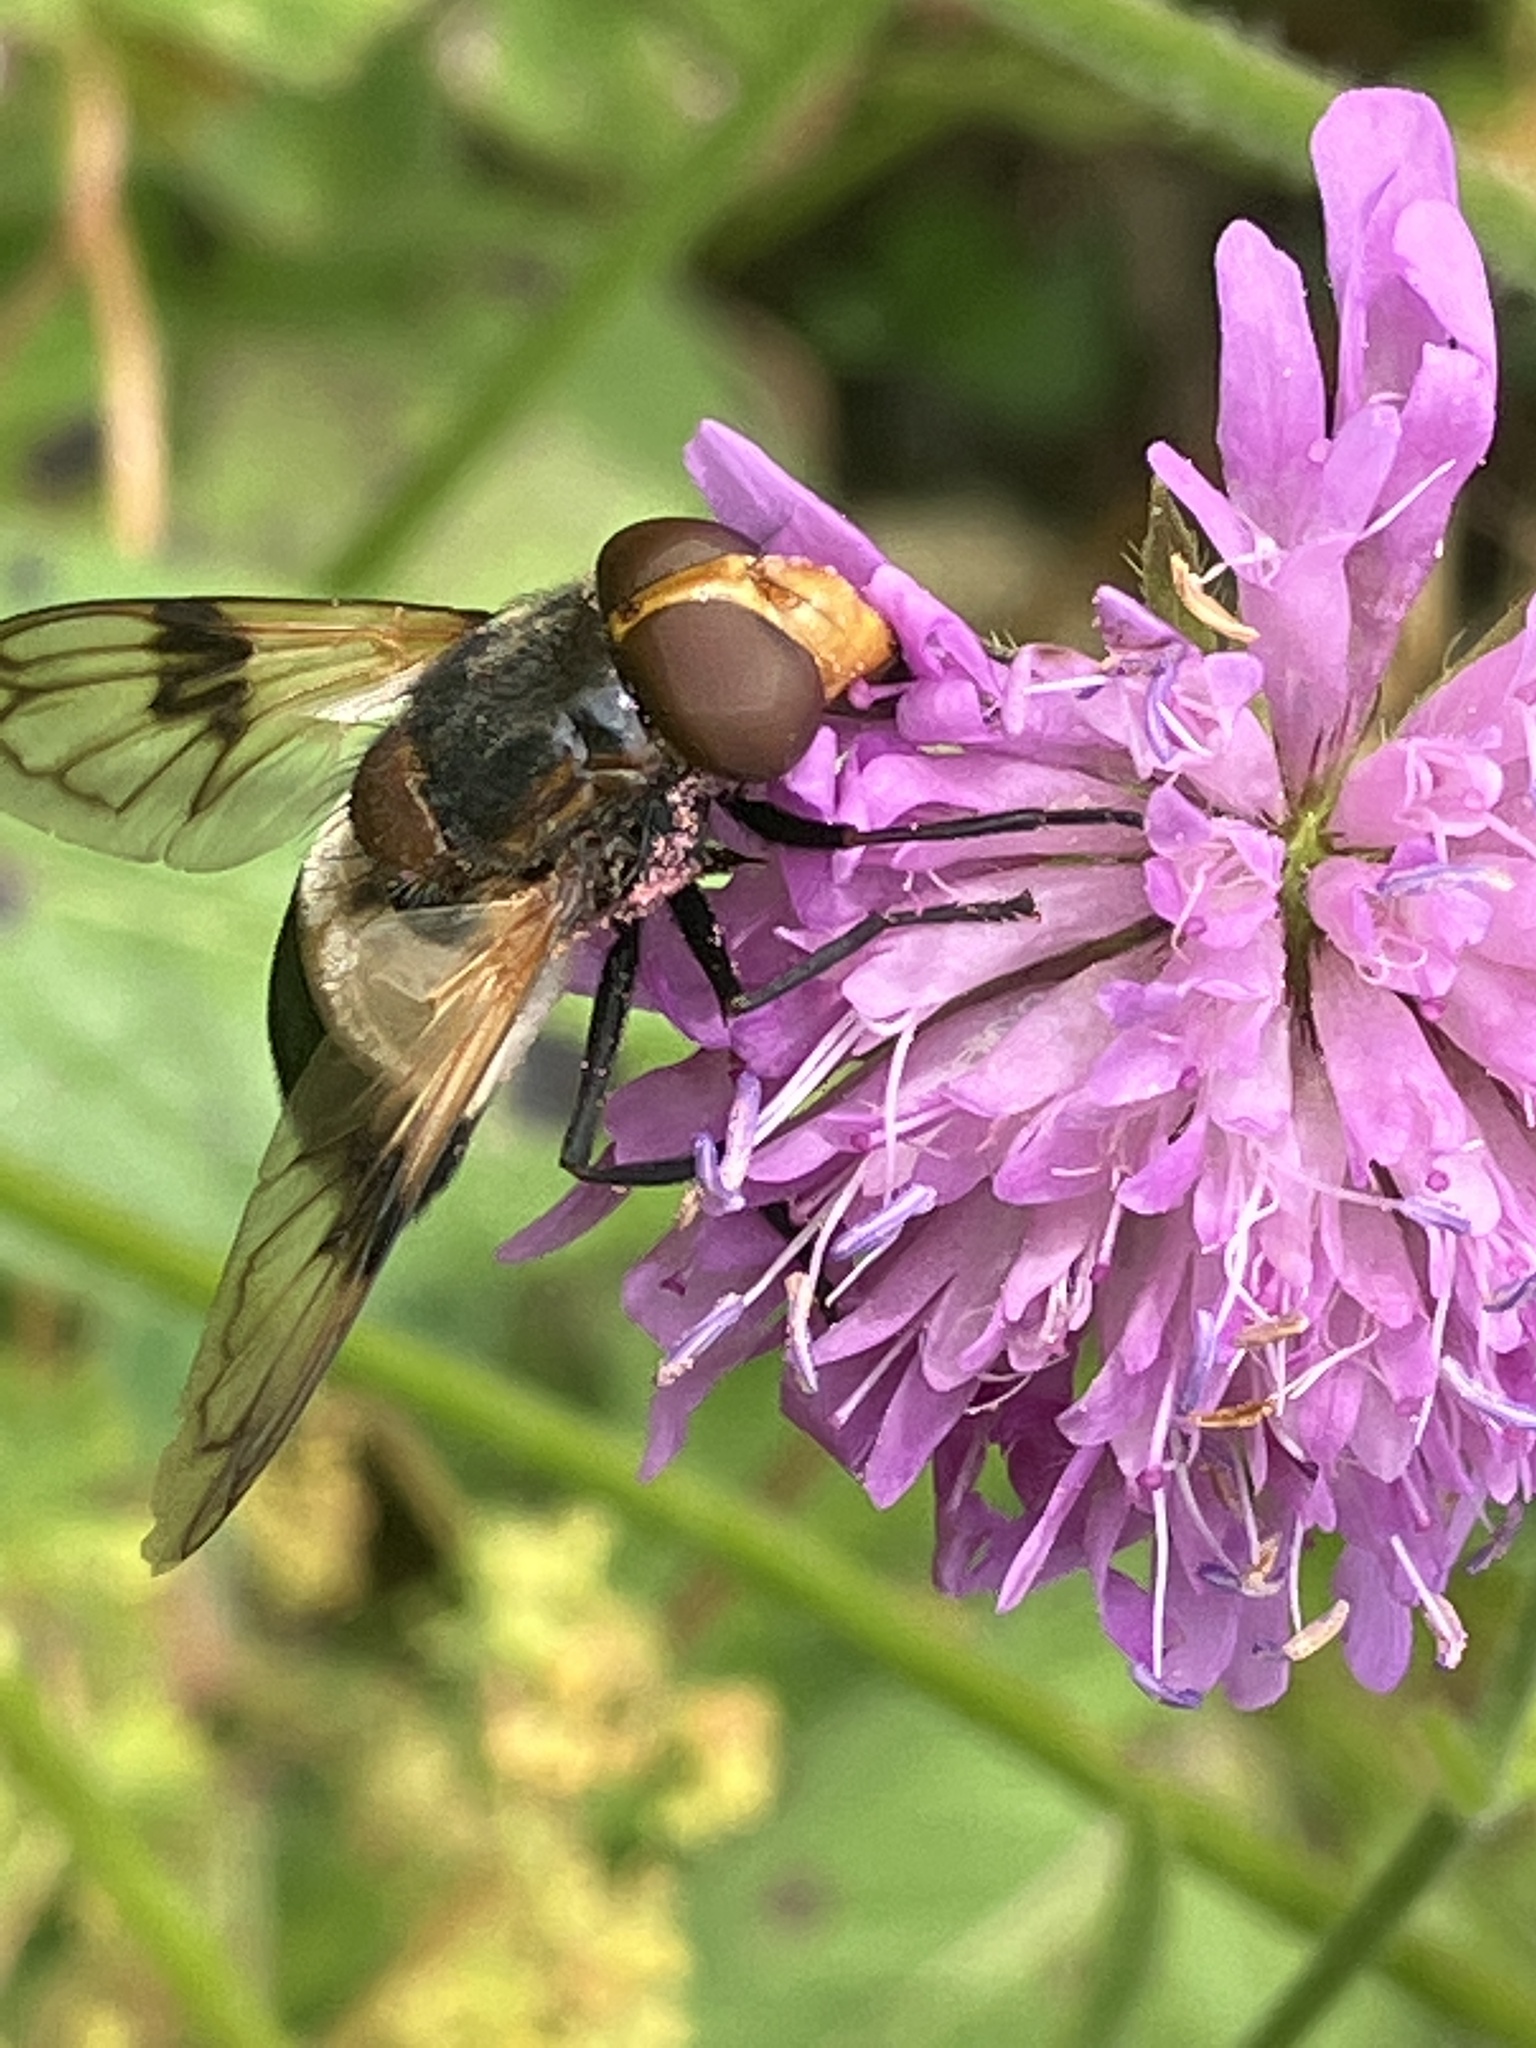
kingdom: Animalia
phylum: Arthropoda
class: Insecta
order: Diptera
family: Syrphidae
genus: Volucella
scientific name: Volucella pellucens
